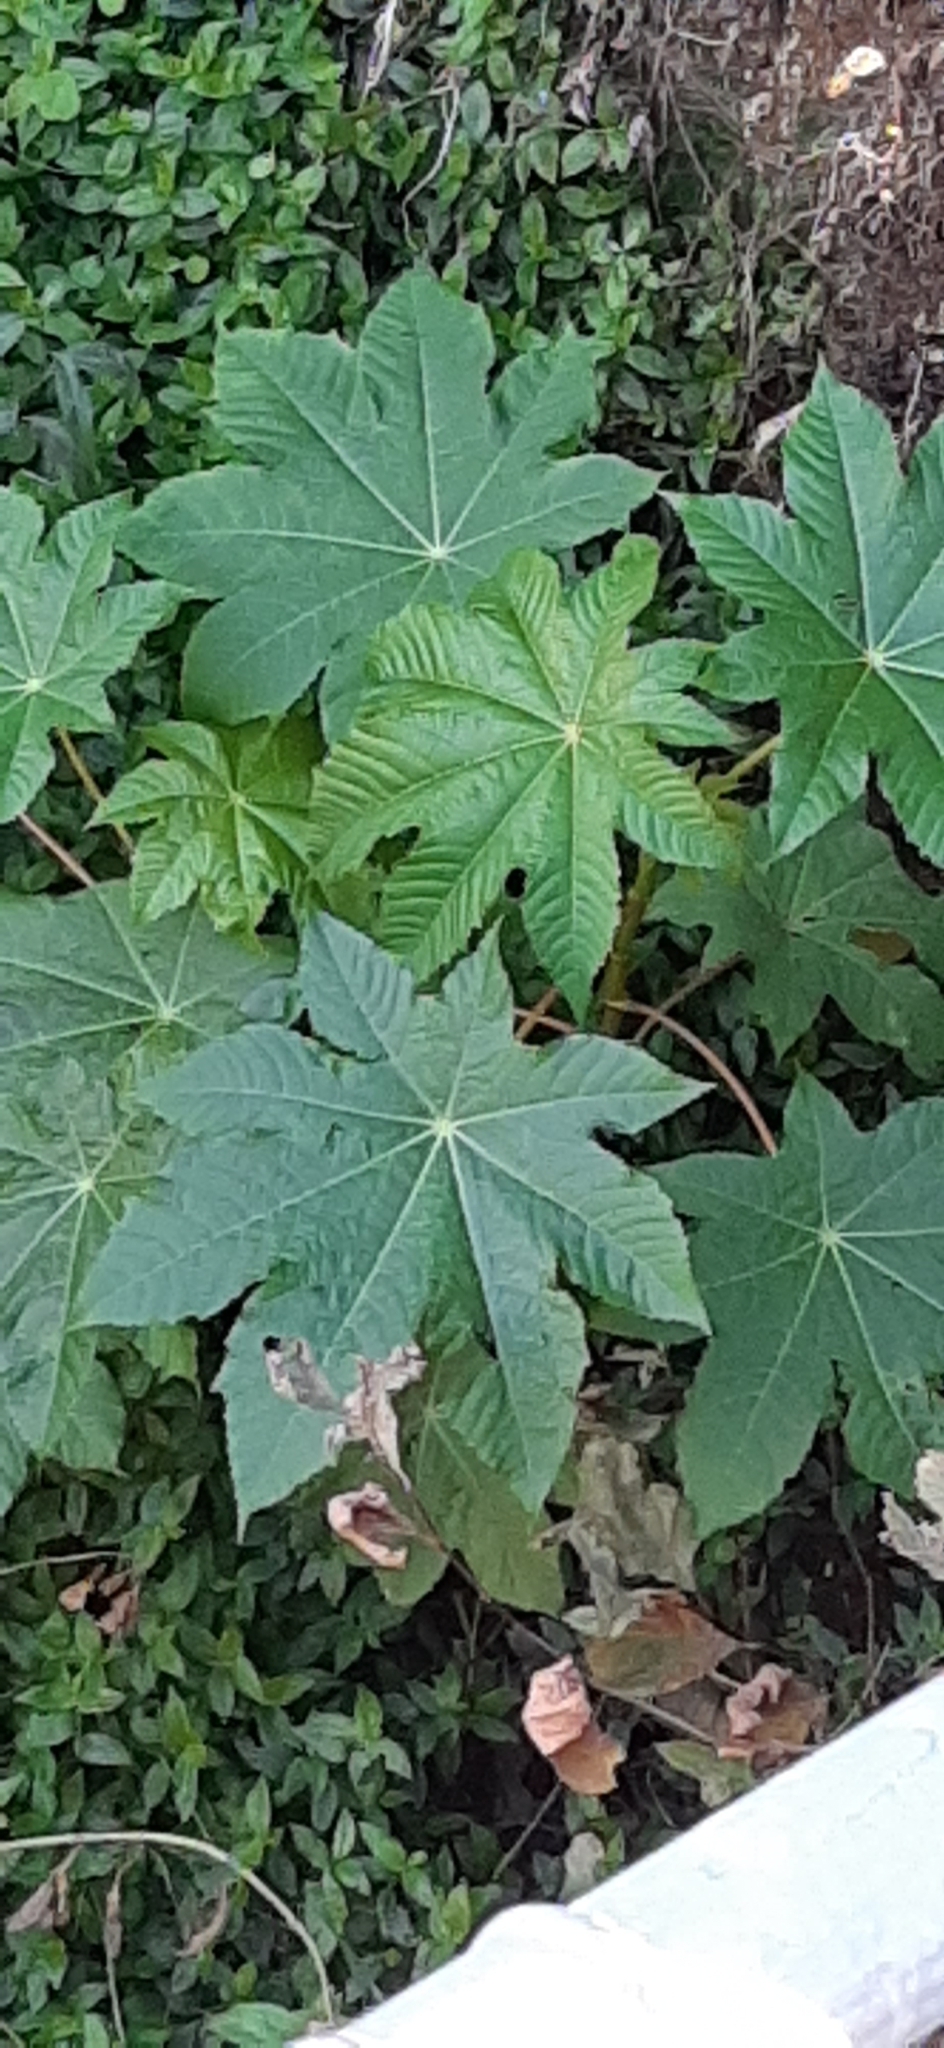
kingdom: Plantae
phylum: Tracheophyta
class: Magnoliopsida
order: Malpighiales
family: Euphorbiaceae
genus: Ricinus
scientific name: Ricinus communis
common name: Castor-oil-plant
